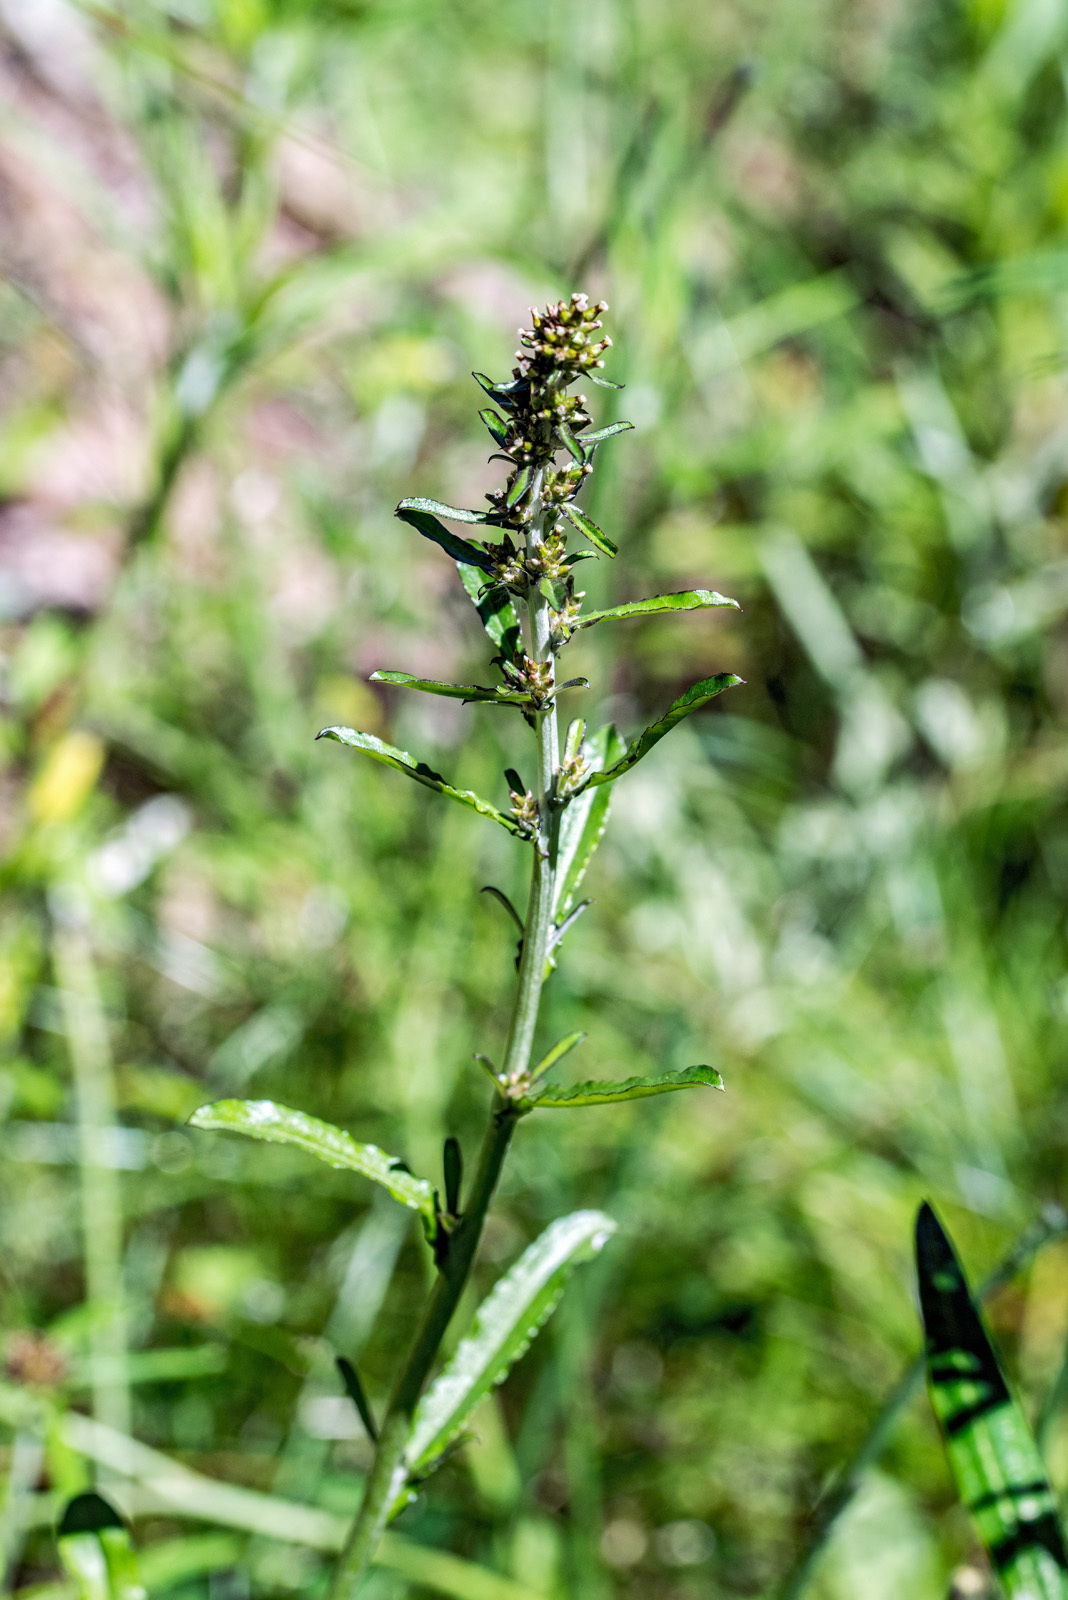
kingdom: Plantae
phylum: Tracheophyta
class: Magnoliopsida
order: Asterales
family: Asteraceae
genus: Gamochaeta
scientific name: Gamochaeta americana
